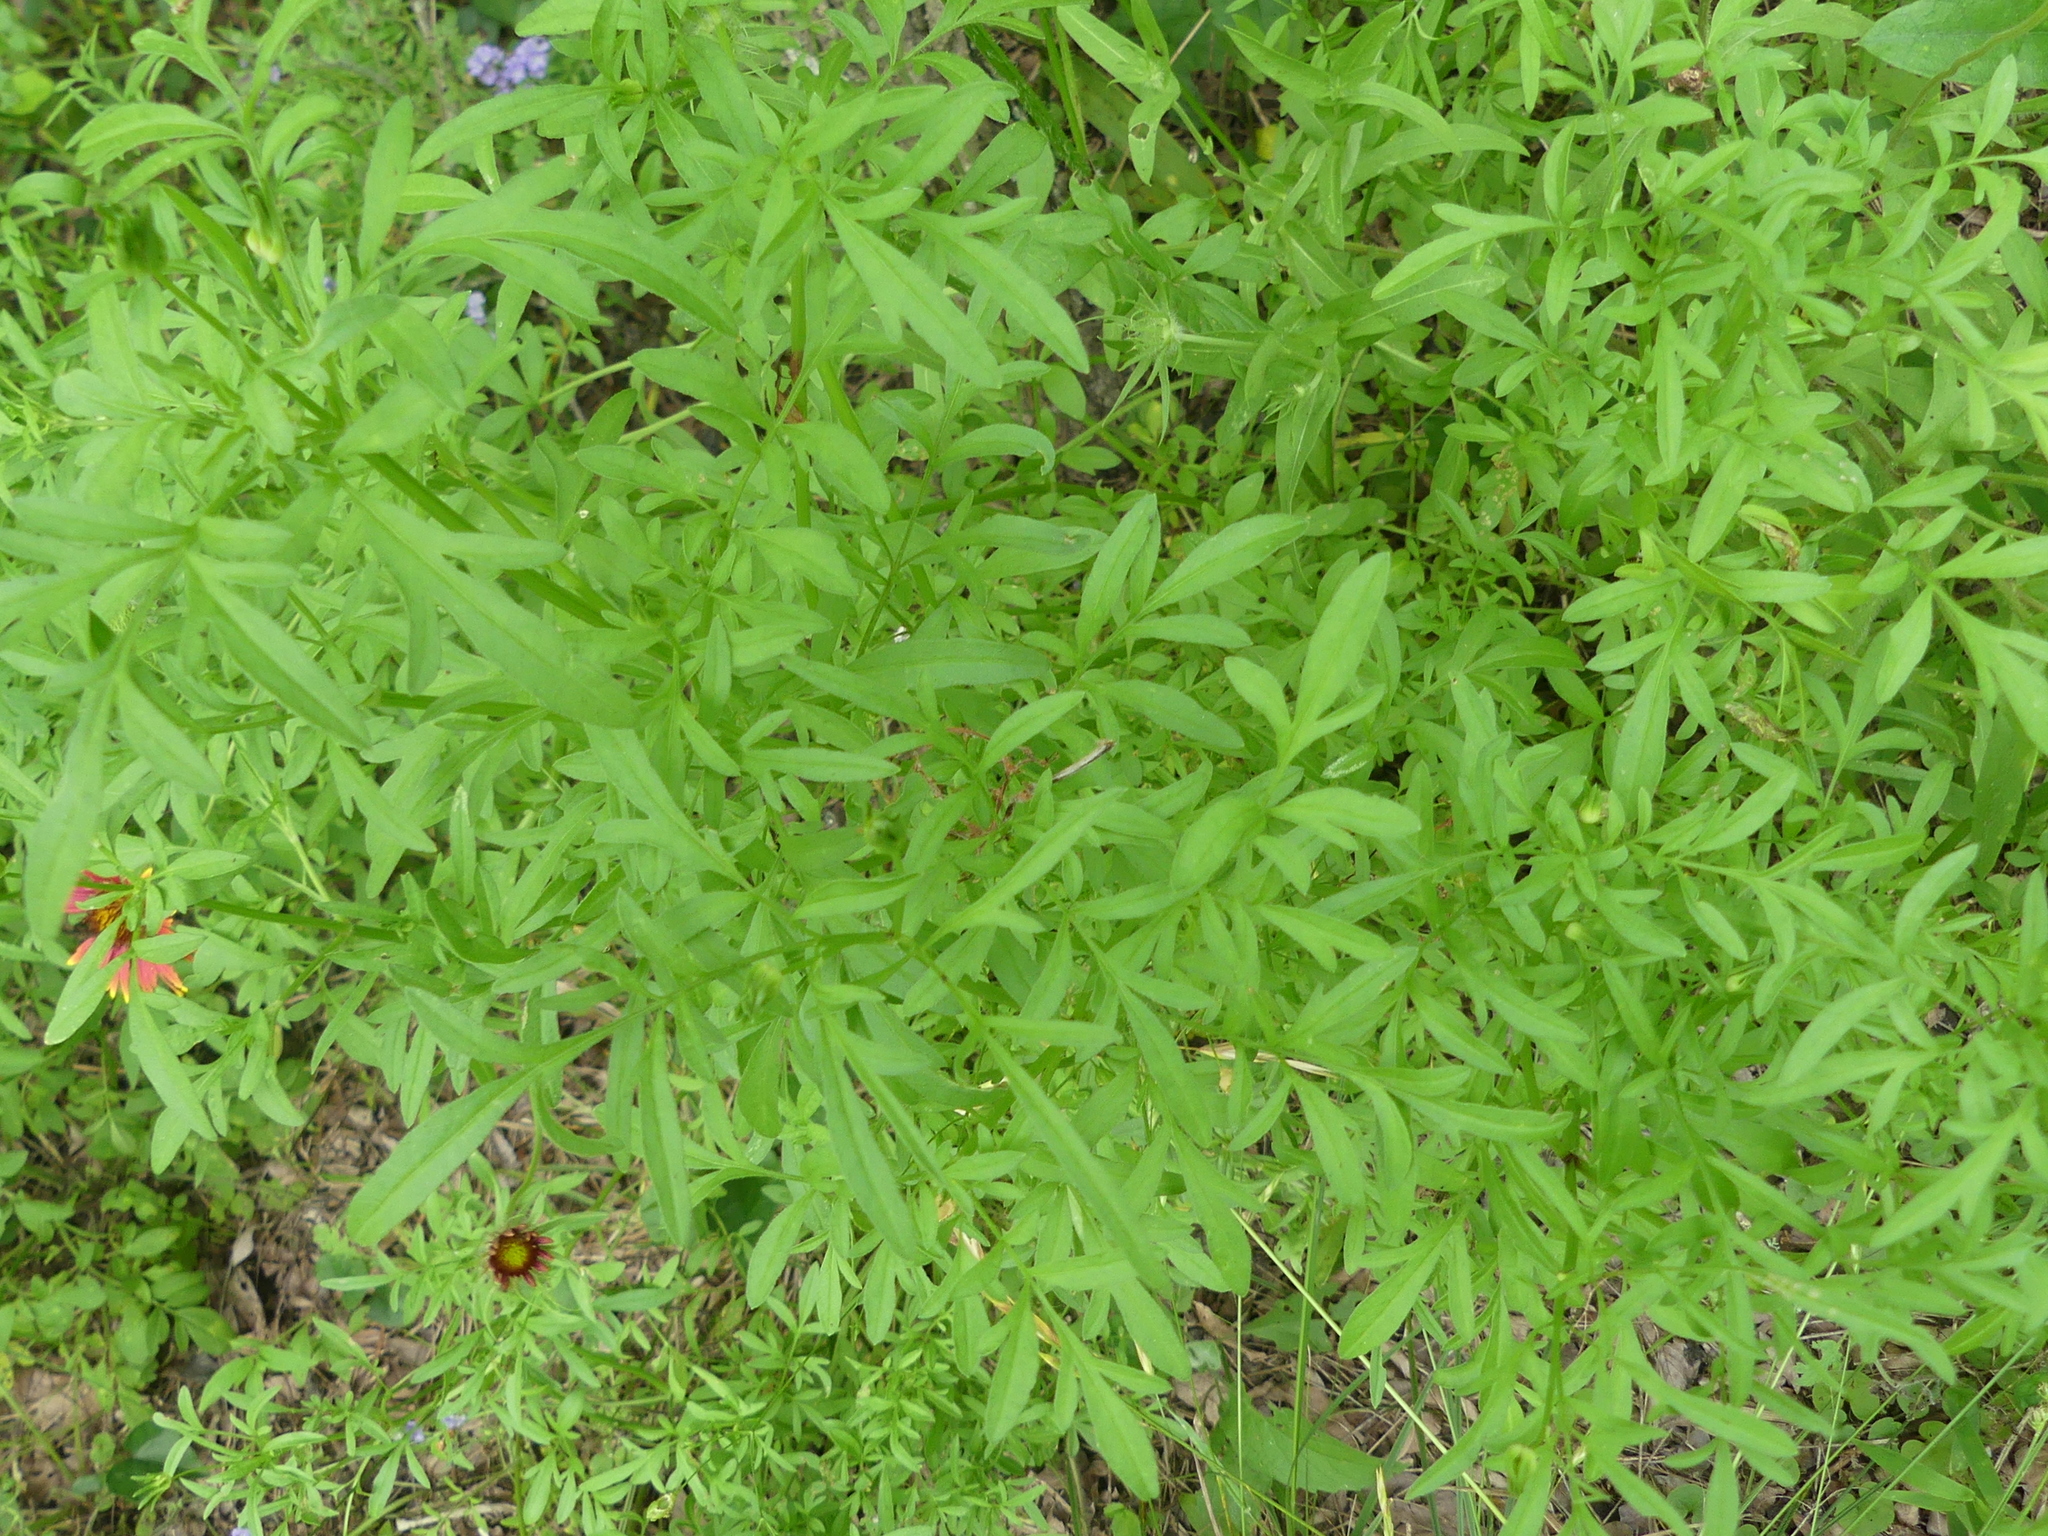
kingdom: Plantae
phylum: Tracheophyta
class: Magnoliopsida
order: Asterales
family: Asteraceae
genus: Ratibida
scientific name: Ratibida columnifera
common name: Prairie coneflower
